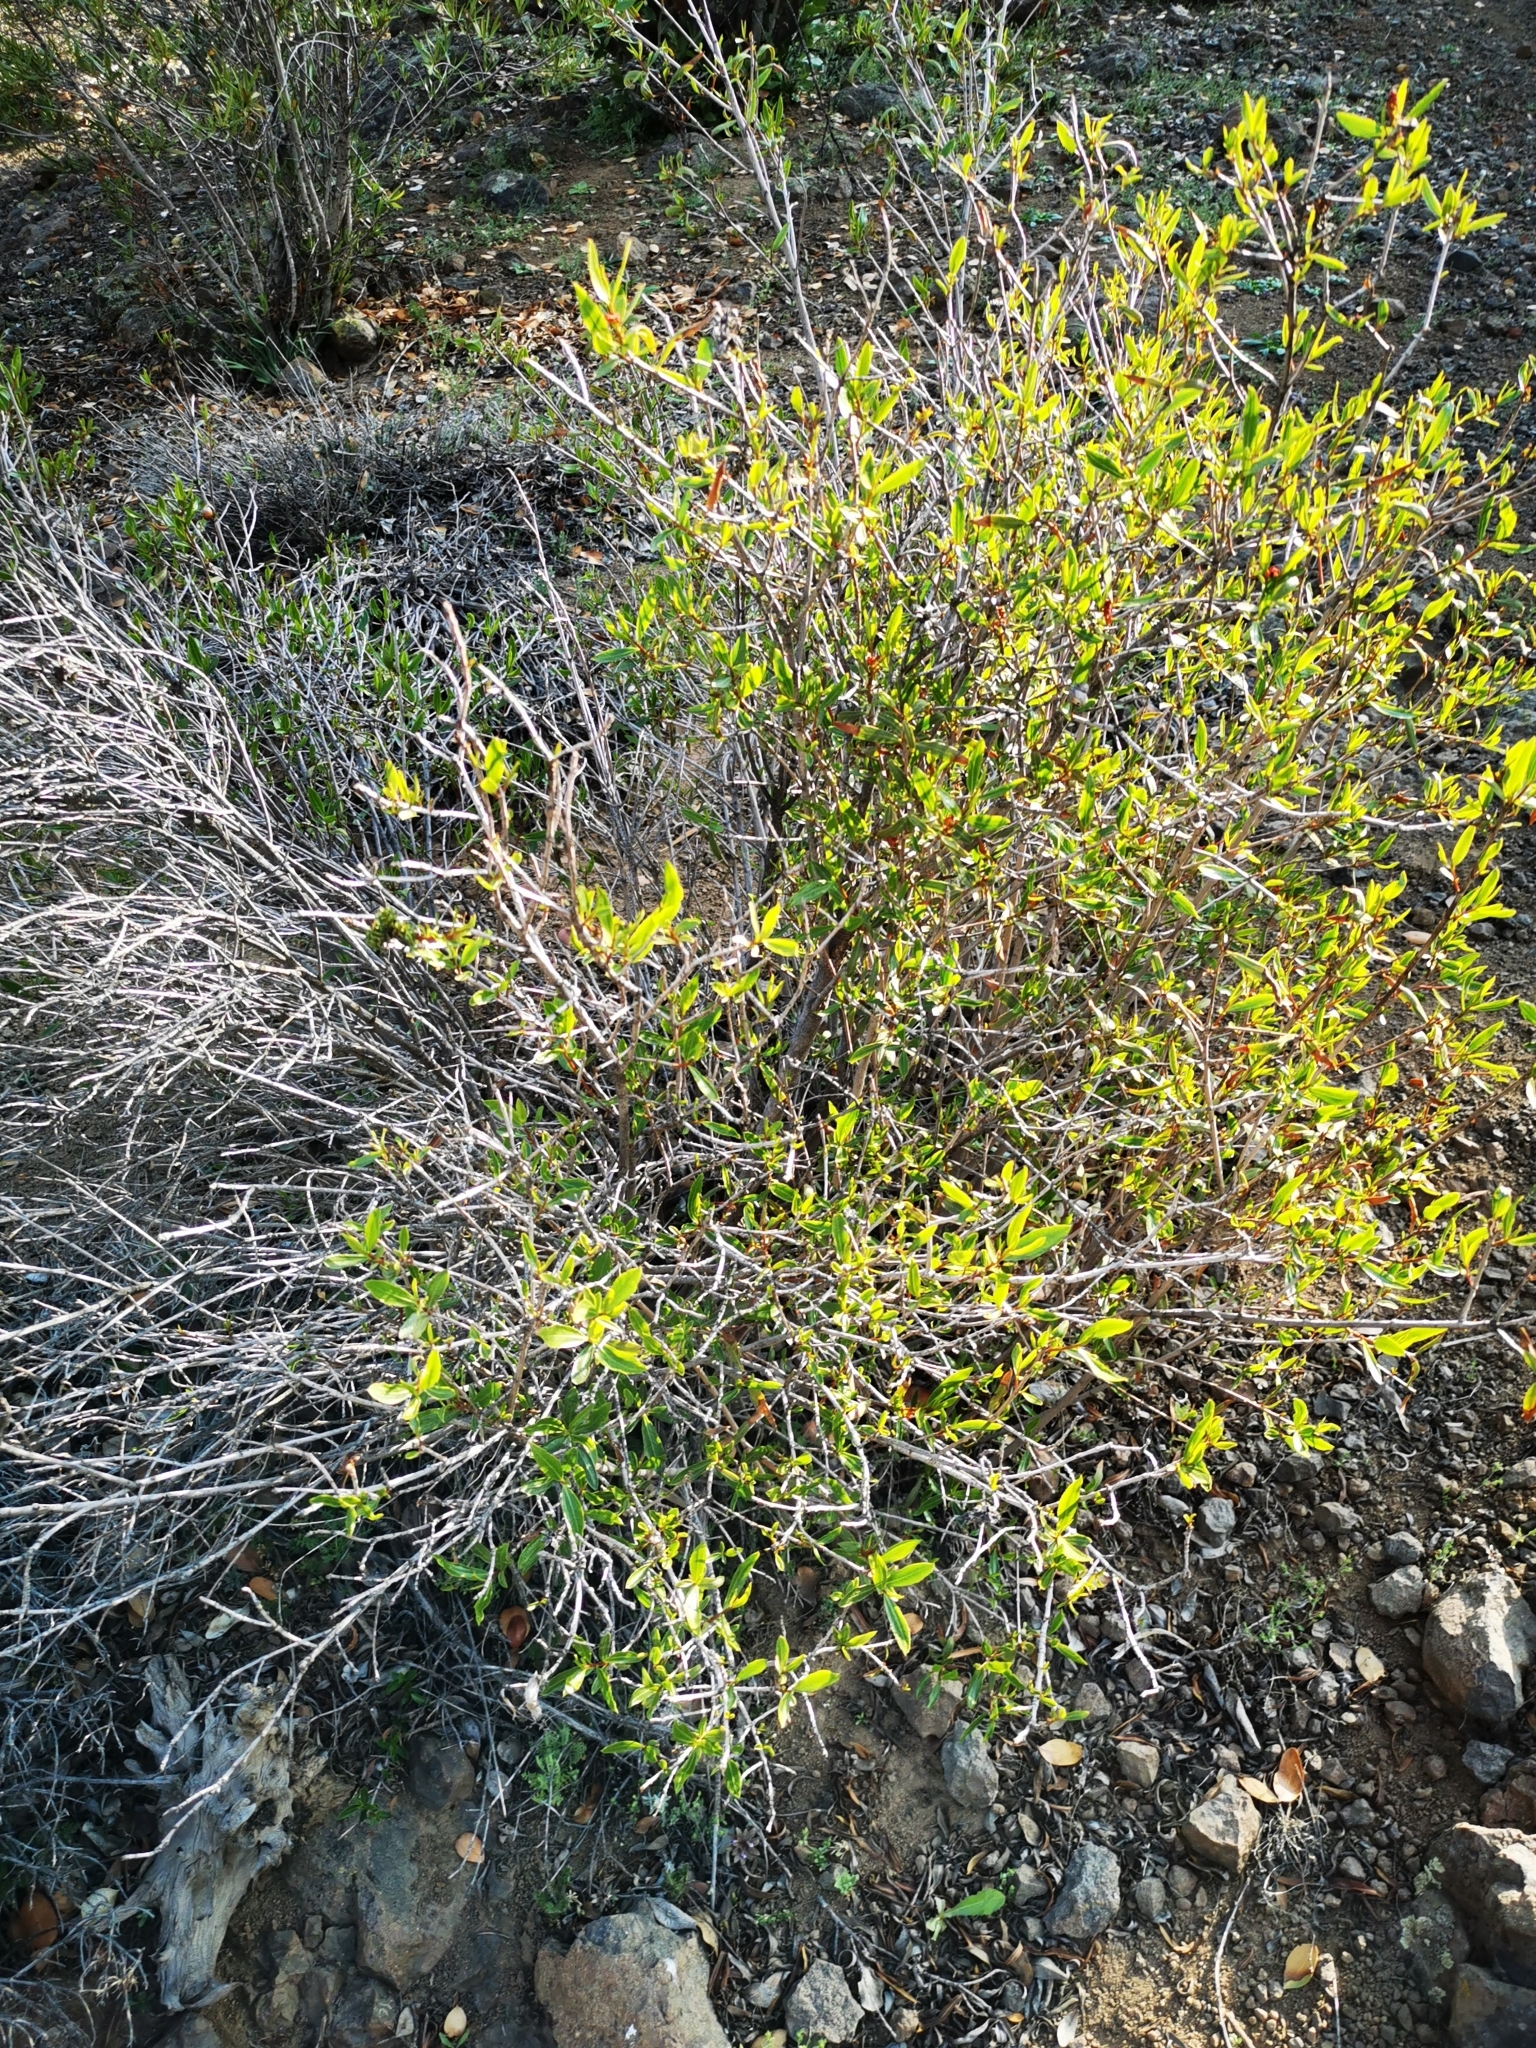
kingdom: Plantae
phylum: Tracheophyta
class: Magnoliopsida
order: Malpighiales
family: Euphorbiaceae
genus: Colliguaja
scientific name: Colliguaja salicifolia
